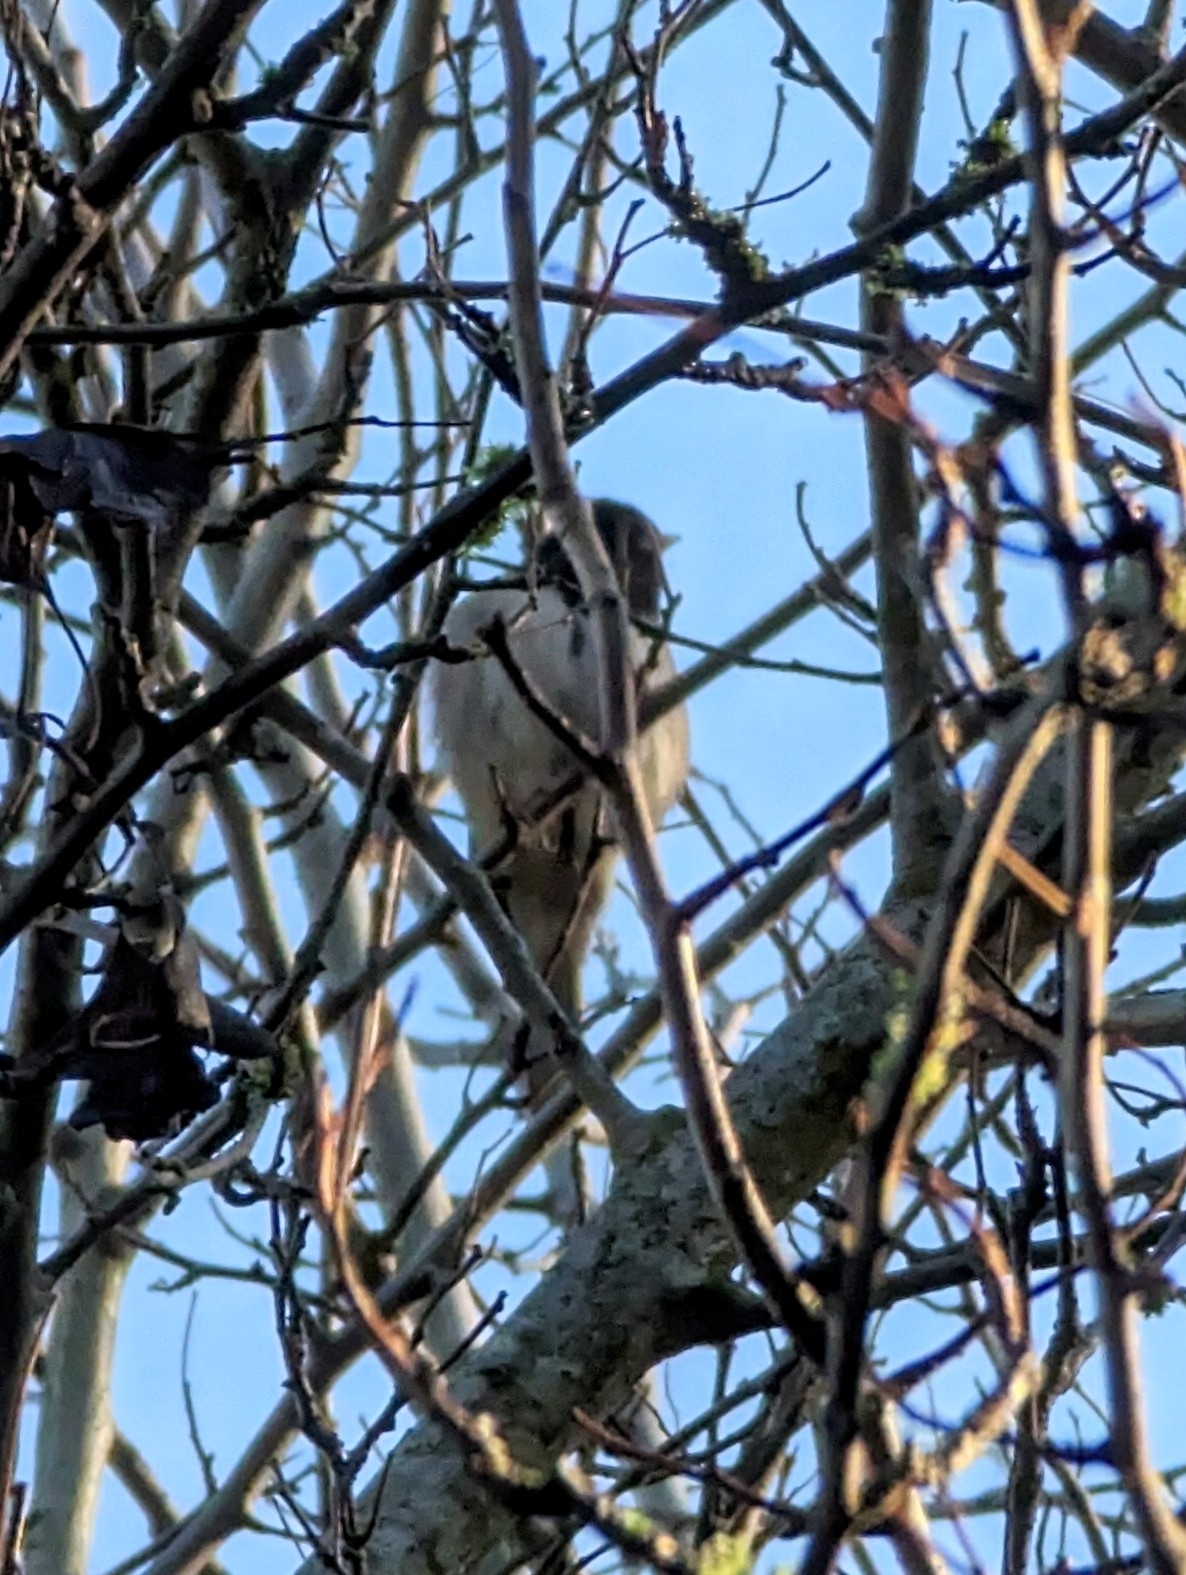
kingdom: Animalia
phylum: Chordata
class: Aves
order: Passeriformes
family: Passerellidae
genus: Junco
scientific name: Junco hyemalis
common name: Dark-eyed junco
